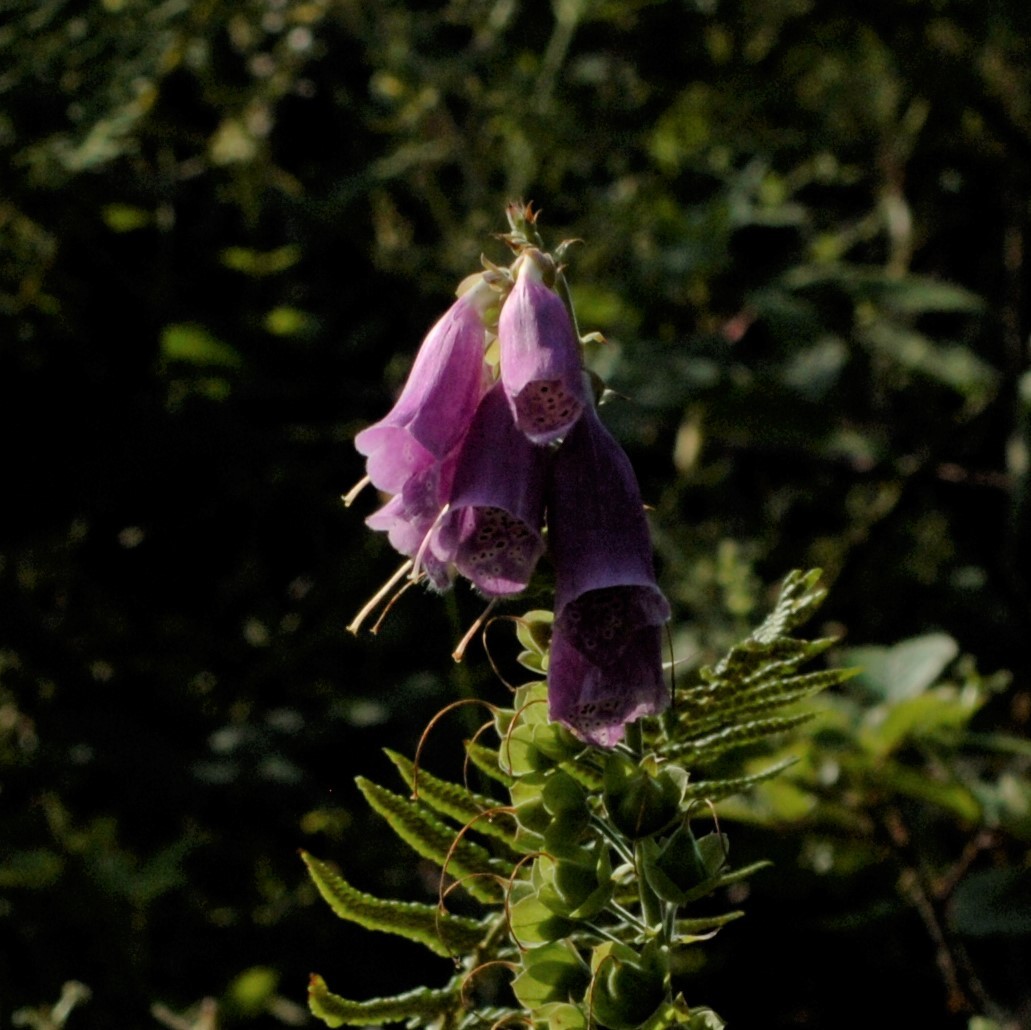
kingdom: Plantae
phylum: Tracheophyta
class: Magnoliopsida
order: Lamiales
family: Plantaginaceae
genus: Digitalis
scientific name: Digitalis purpurea
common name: Foxglove
